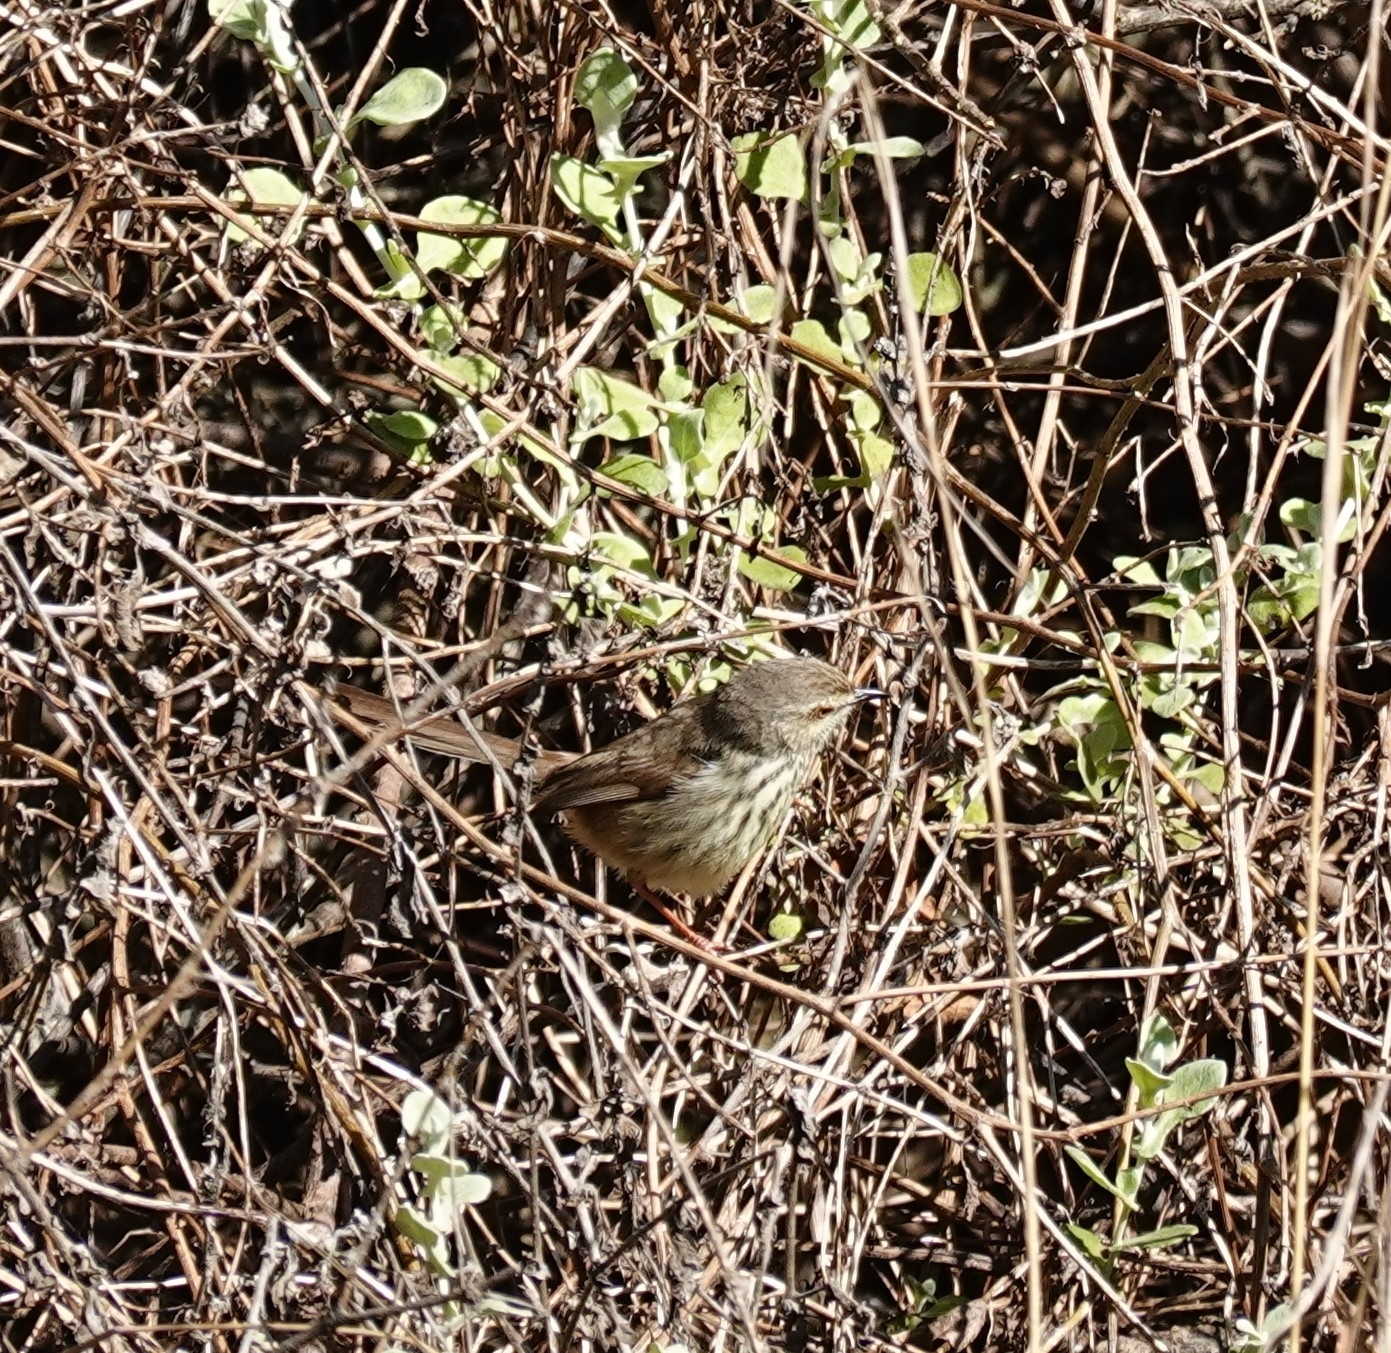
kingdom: Animalia
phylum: Chordata
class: Aves
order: Passeriformes
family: Cisticolidae
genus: Prinia
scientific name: Prinia maculosa
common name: Karoo prinia
